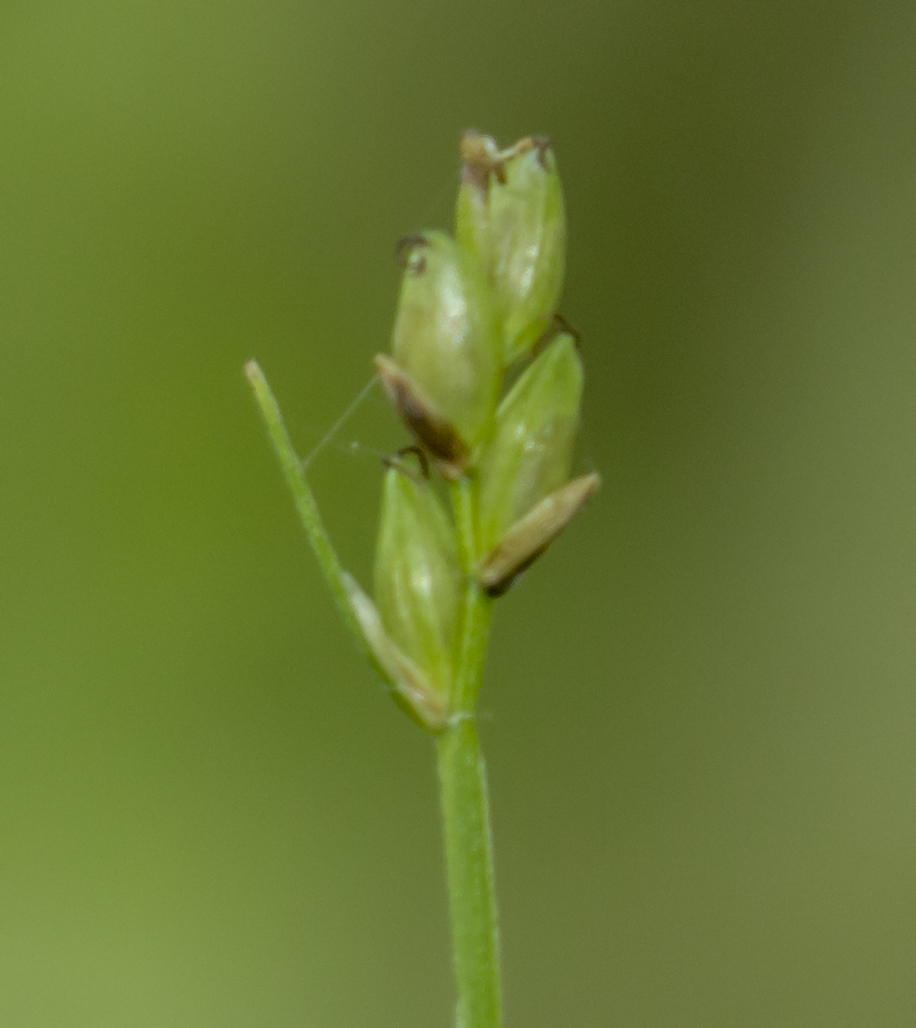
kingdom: Plantae
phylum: Tracheophyta
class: Liliopsida
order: Poales
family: Cyperaceae
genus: Carex
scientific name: Carex leptalea
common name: Bristly-stalked sedge
